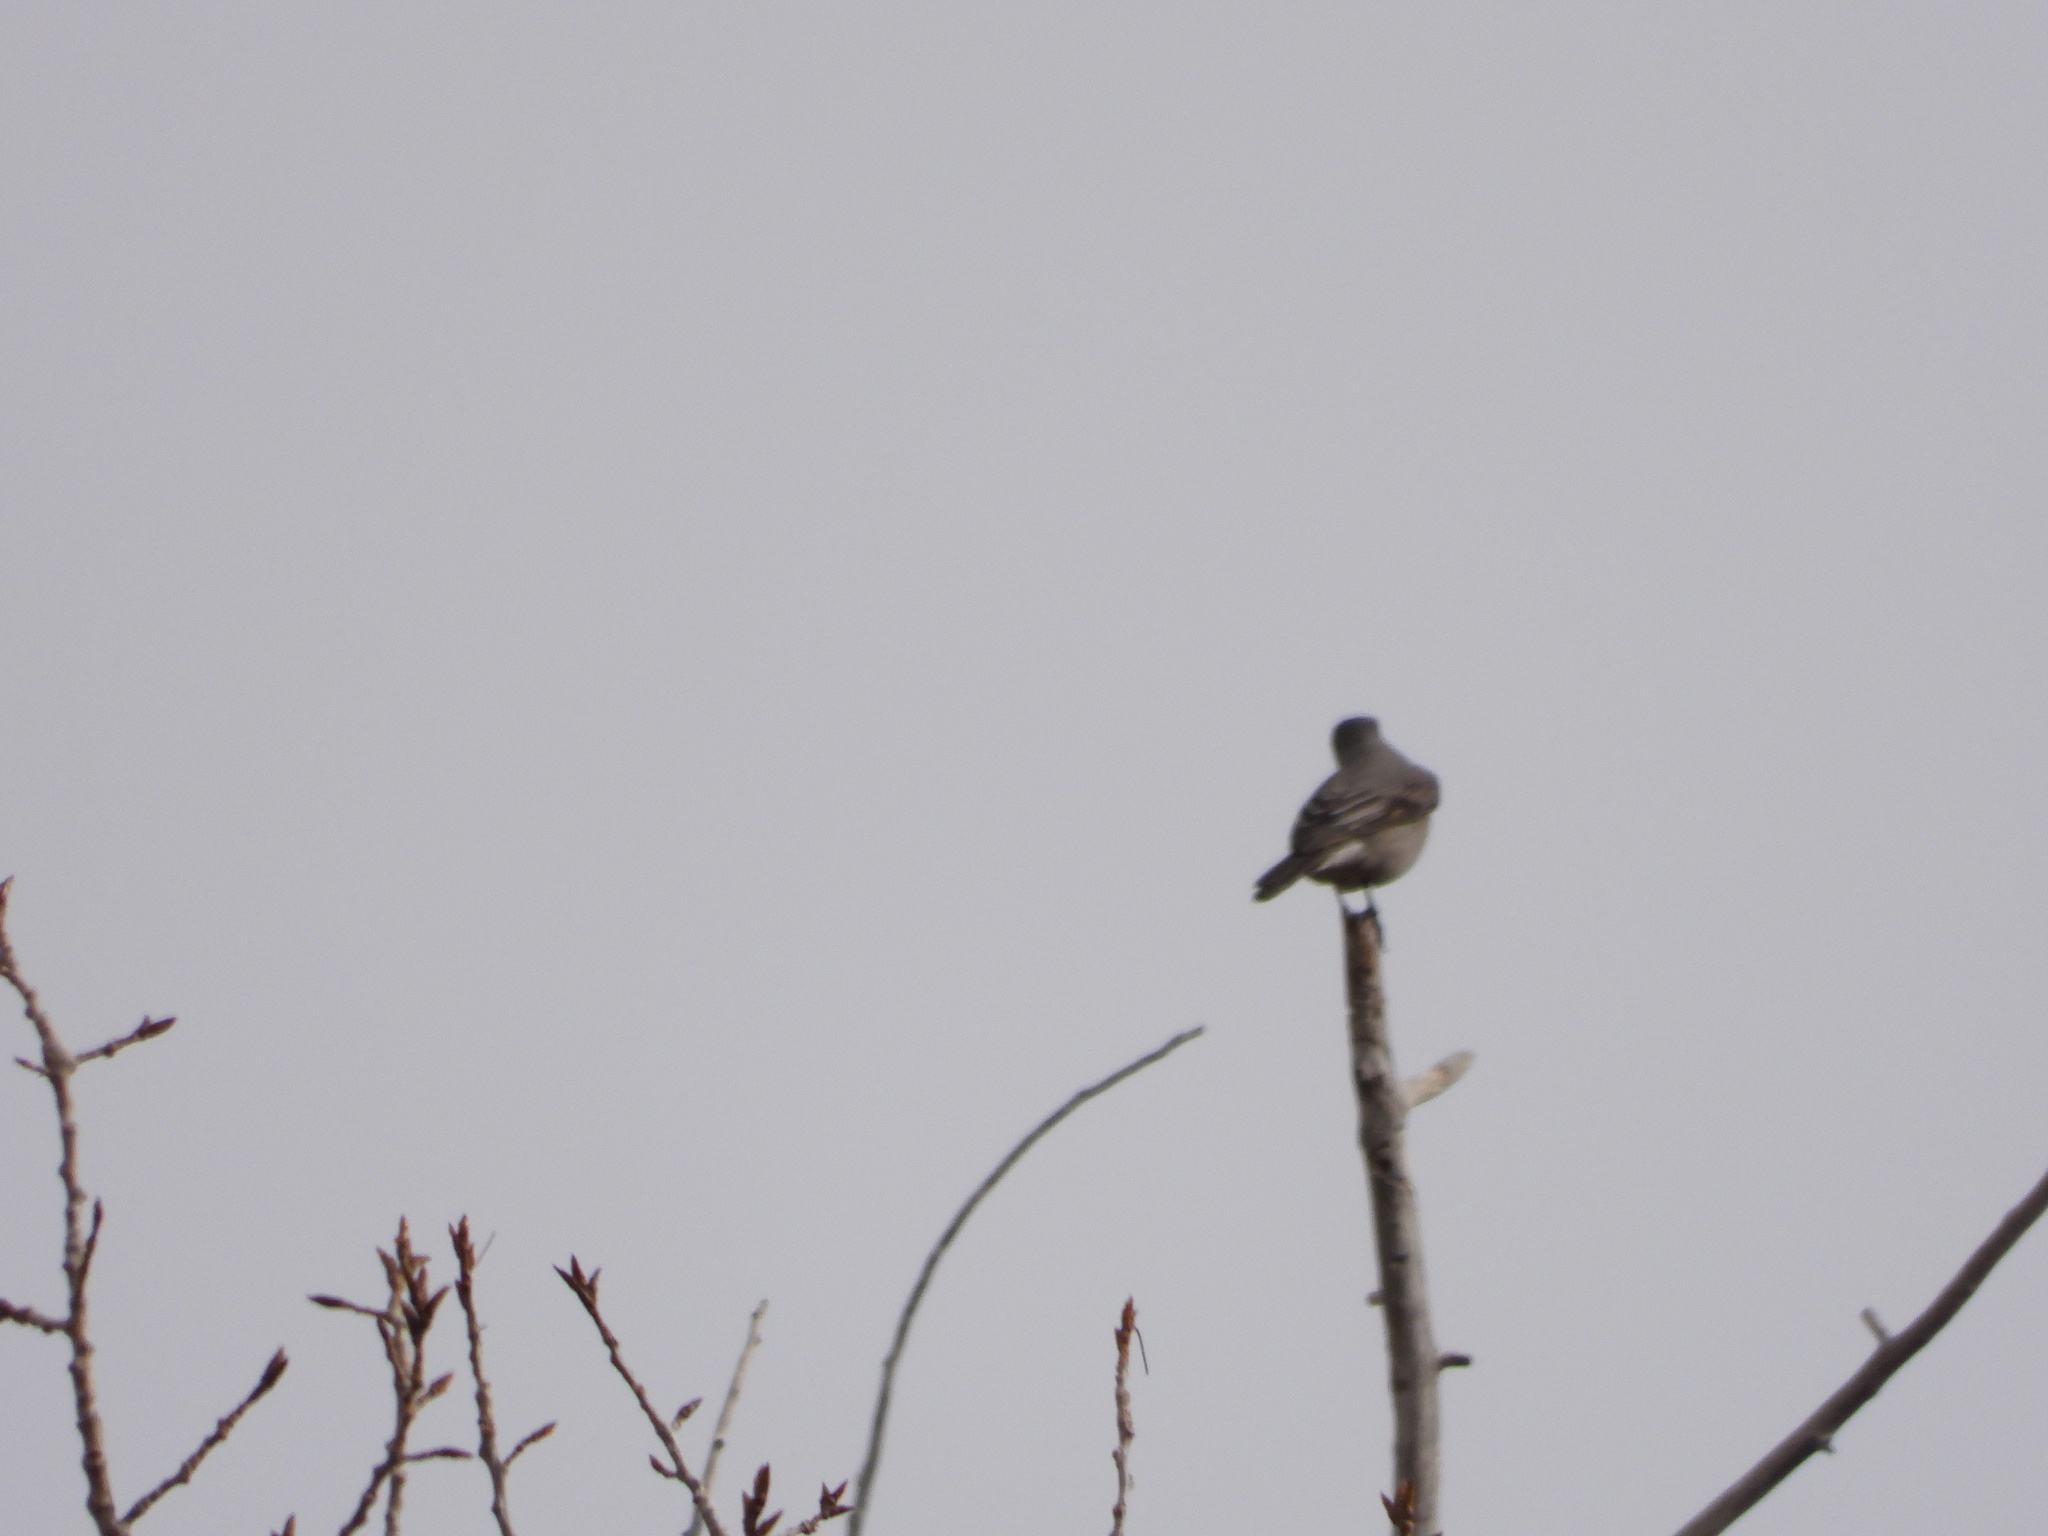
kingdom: Animalia
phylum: Chordata
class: Aves
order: Passeriformes
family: Turdidae
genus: Myadestes
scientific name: Myadestes townsendi
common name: Townsend's solitaire
